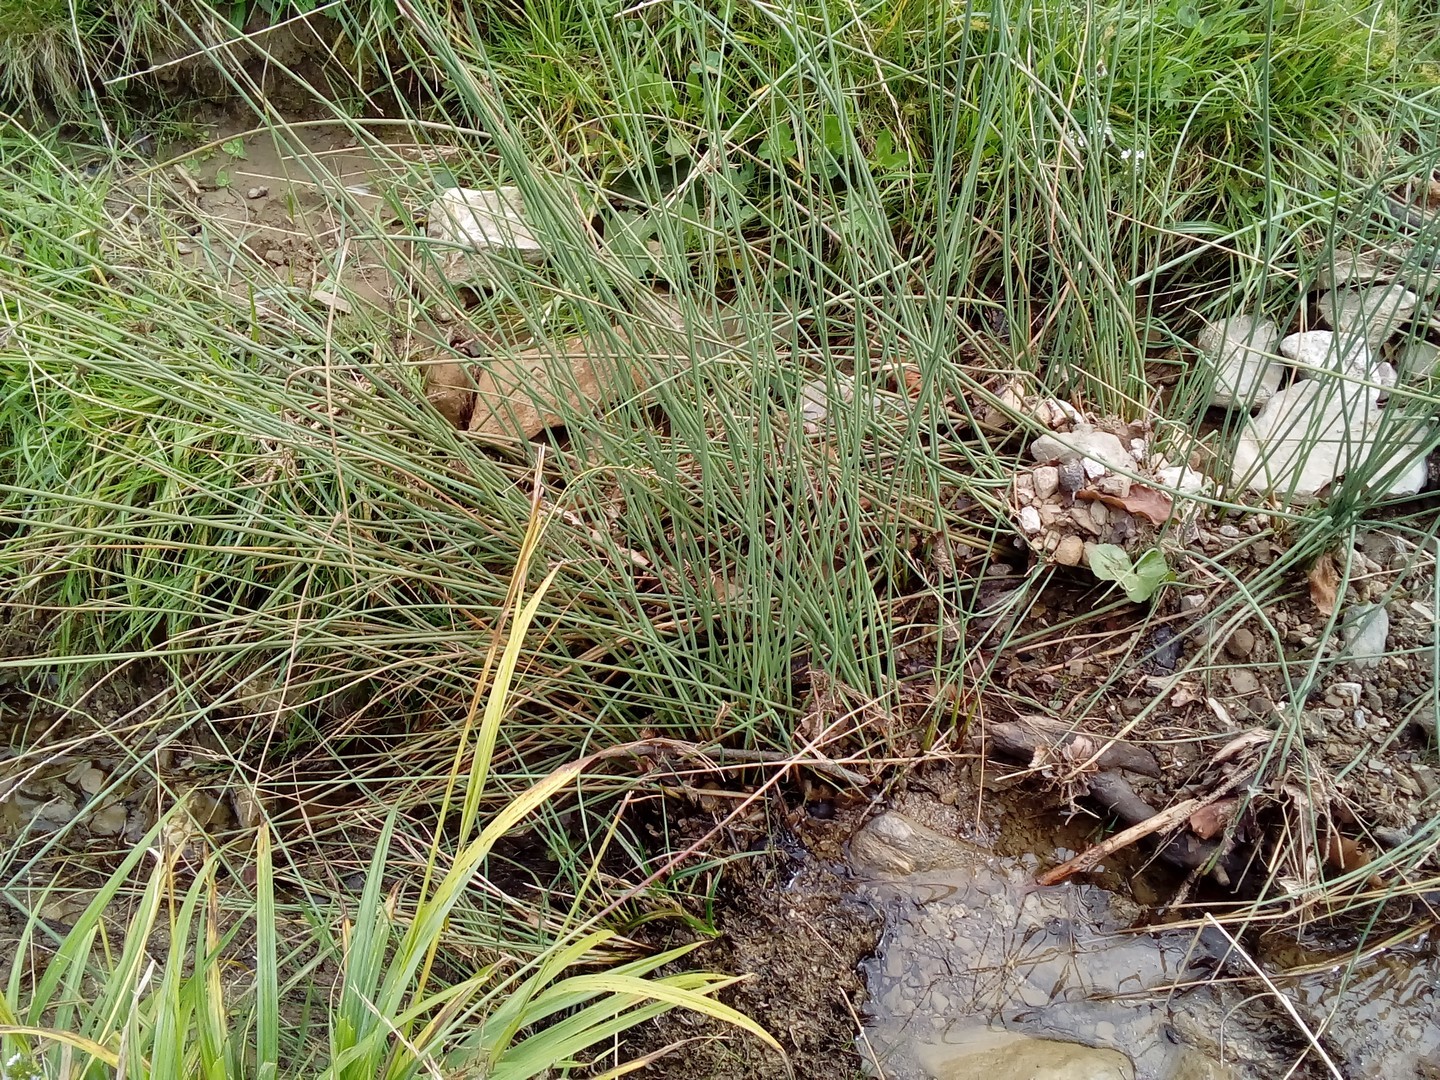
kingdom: Plantae
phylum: Tracheophyta
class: Liliopsida
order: Poales
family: Juncaceae
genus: Juncus
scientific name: Juncus inflexus
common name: Hard rush
